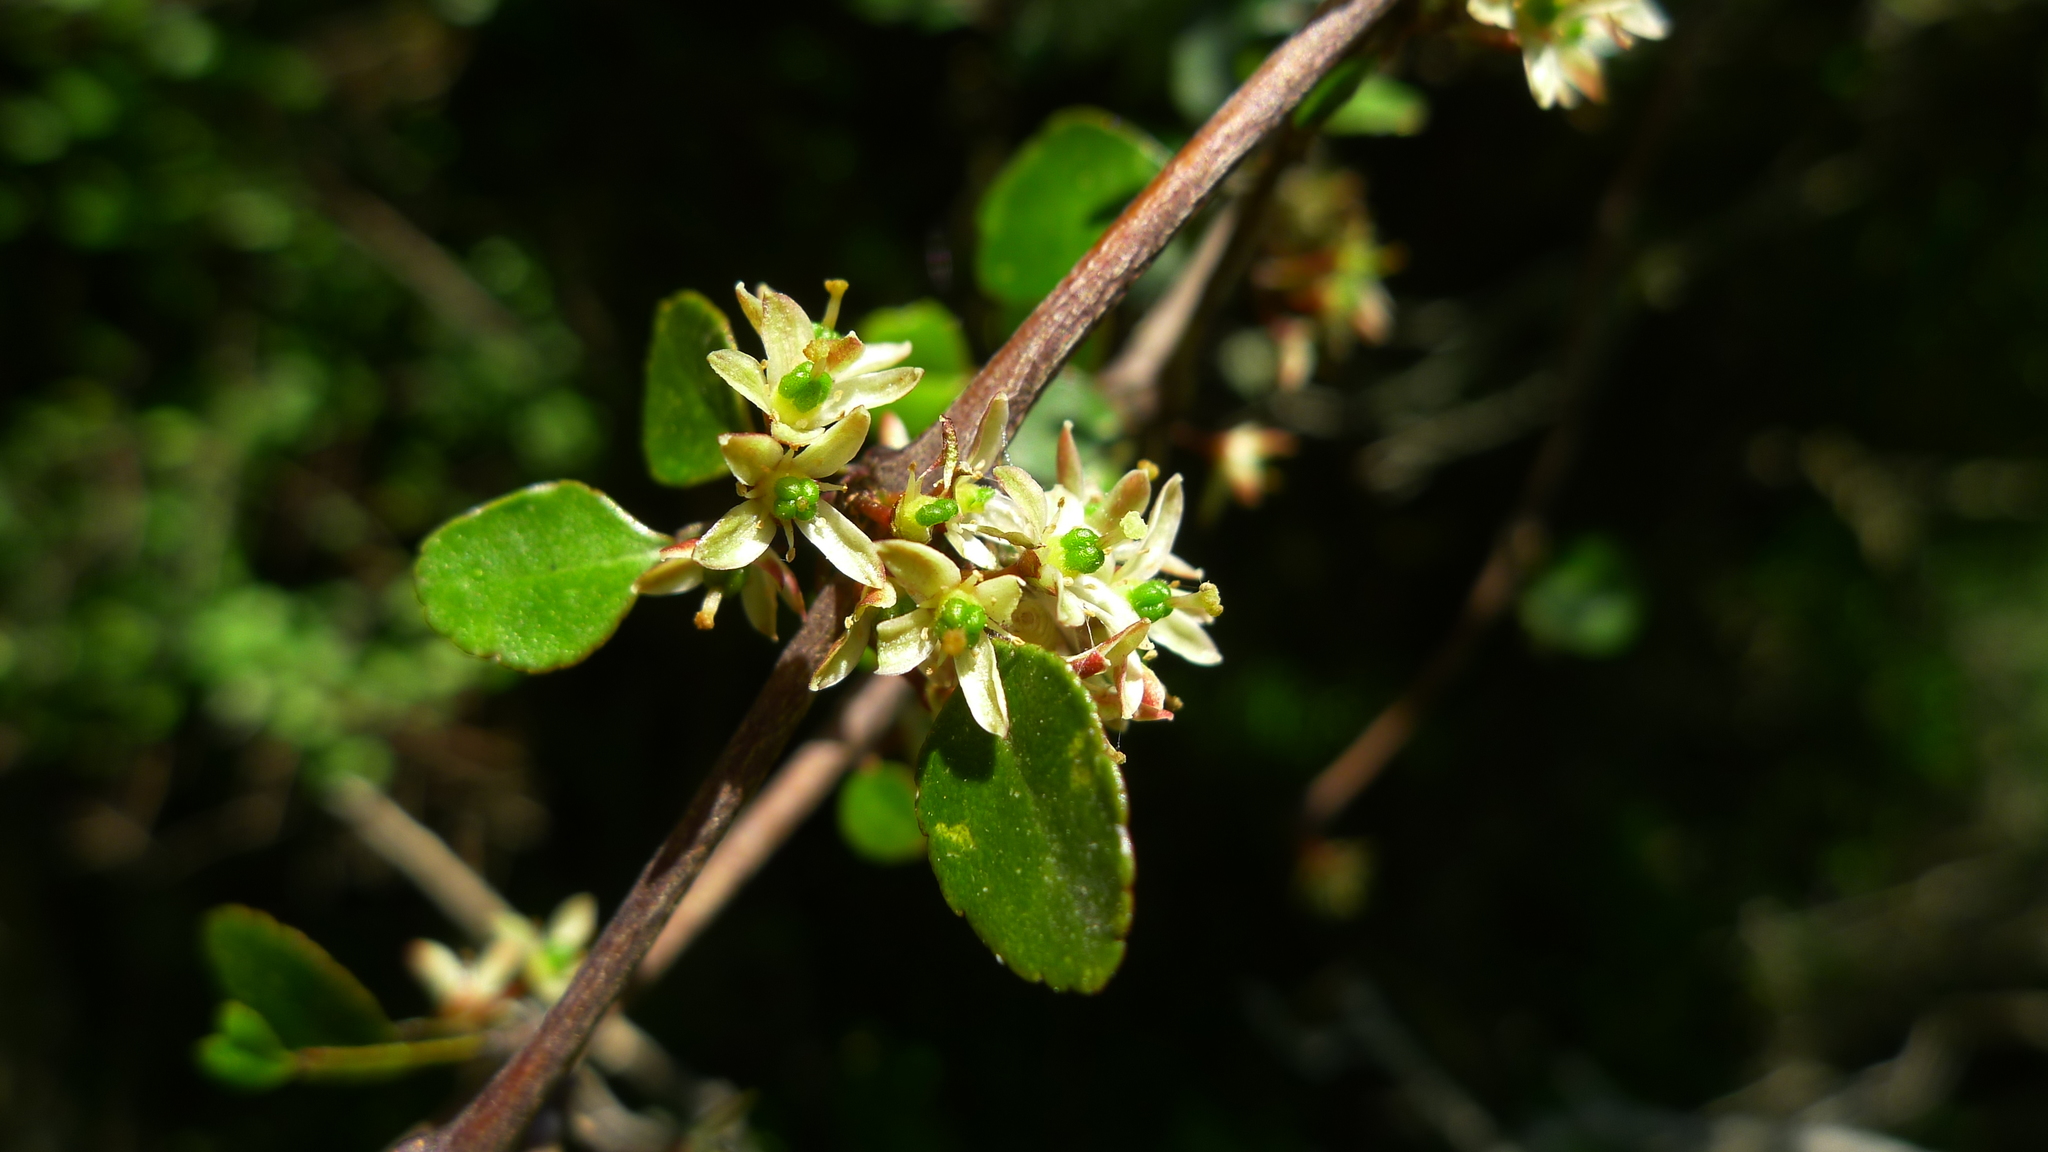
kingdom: Plantae
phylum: Tracheophyta
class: Magnoliopsida
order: Sapindales
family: Rutaceae
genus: Melicope
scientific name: Melicope simplex
